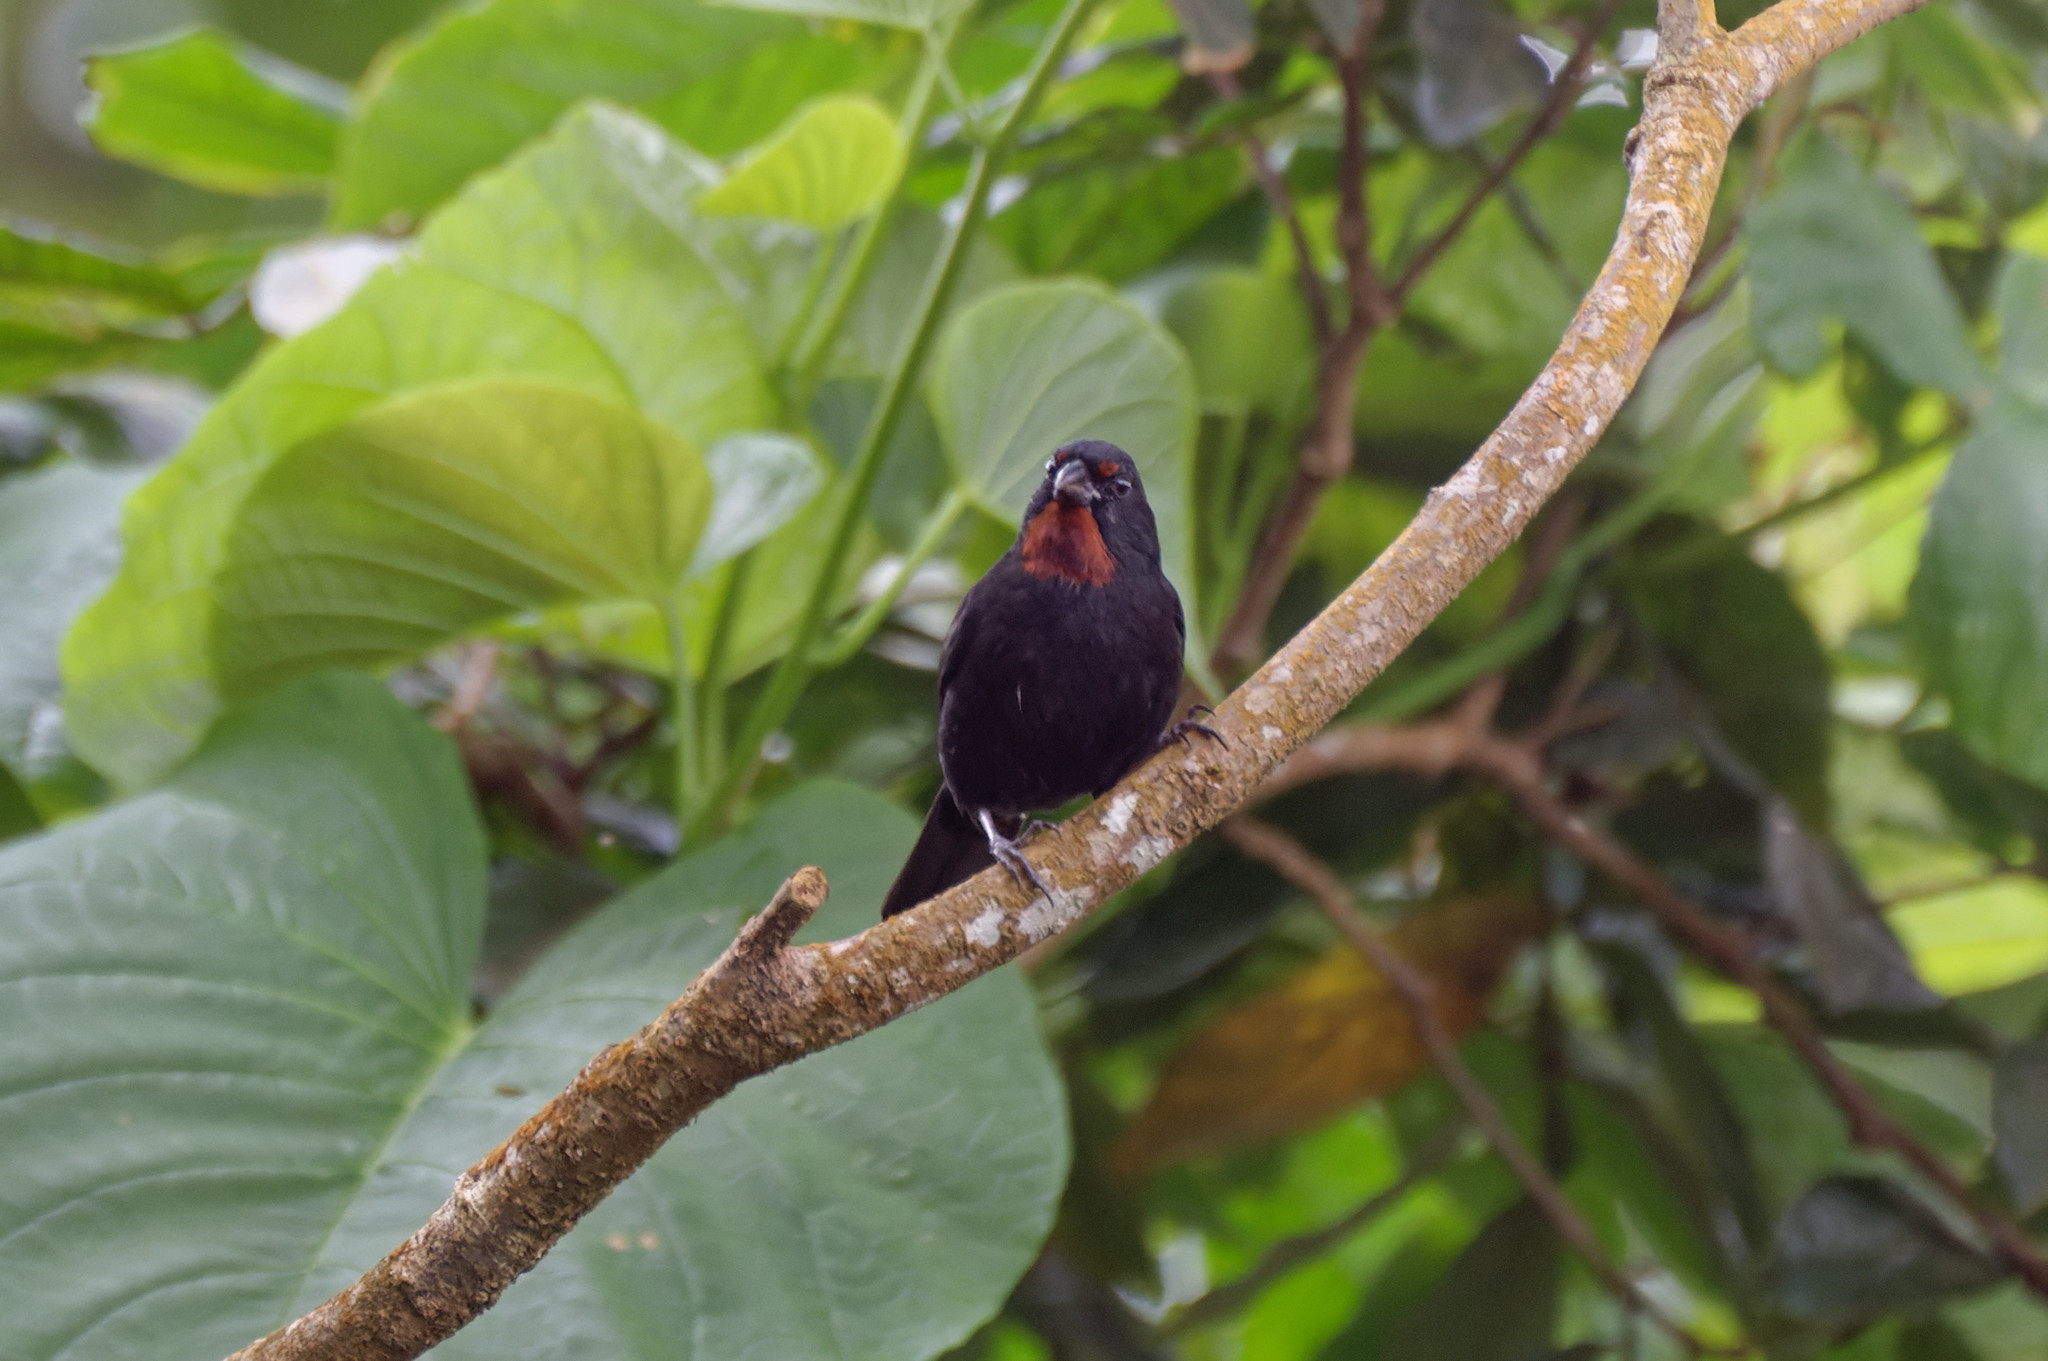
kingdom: Animalia
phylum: Chordata
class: Aves
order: Passeriformes
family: Thraupidae
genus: Loxigilla
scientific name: Loxigilla noctis
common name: Lesser antillean bullfinch
